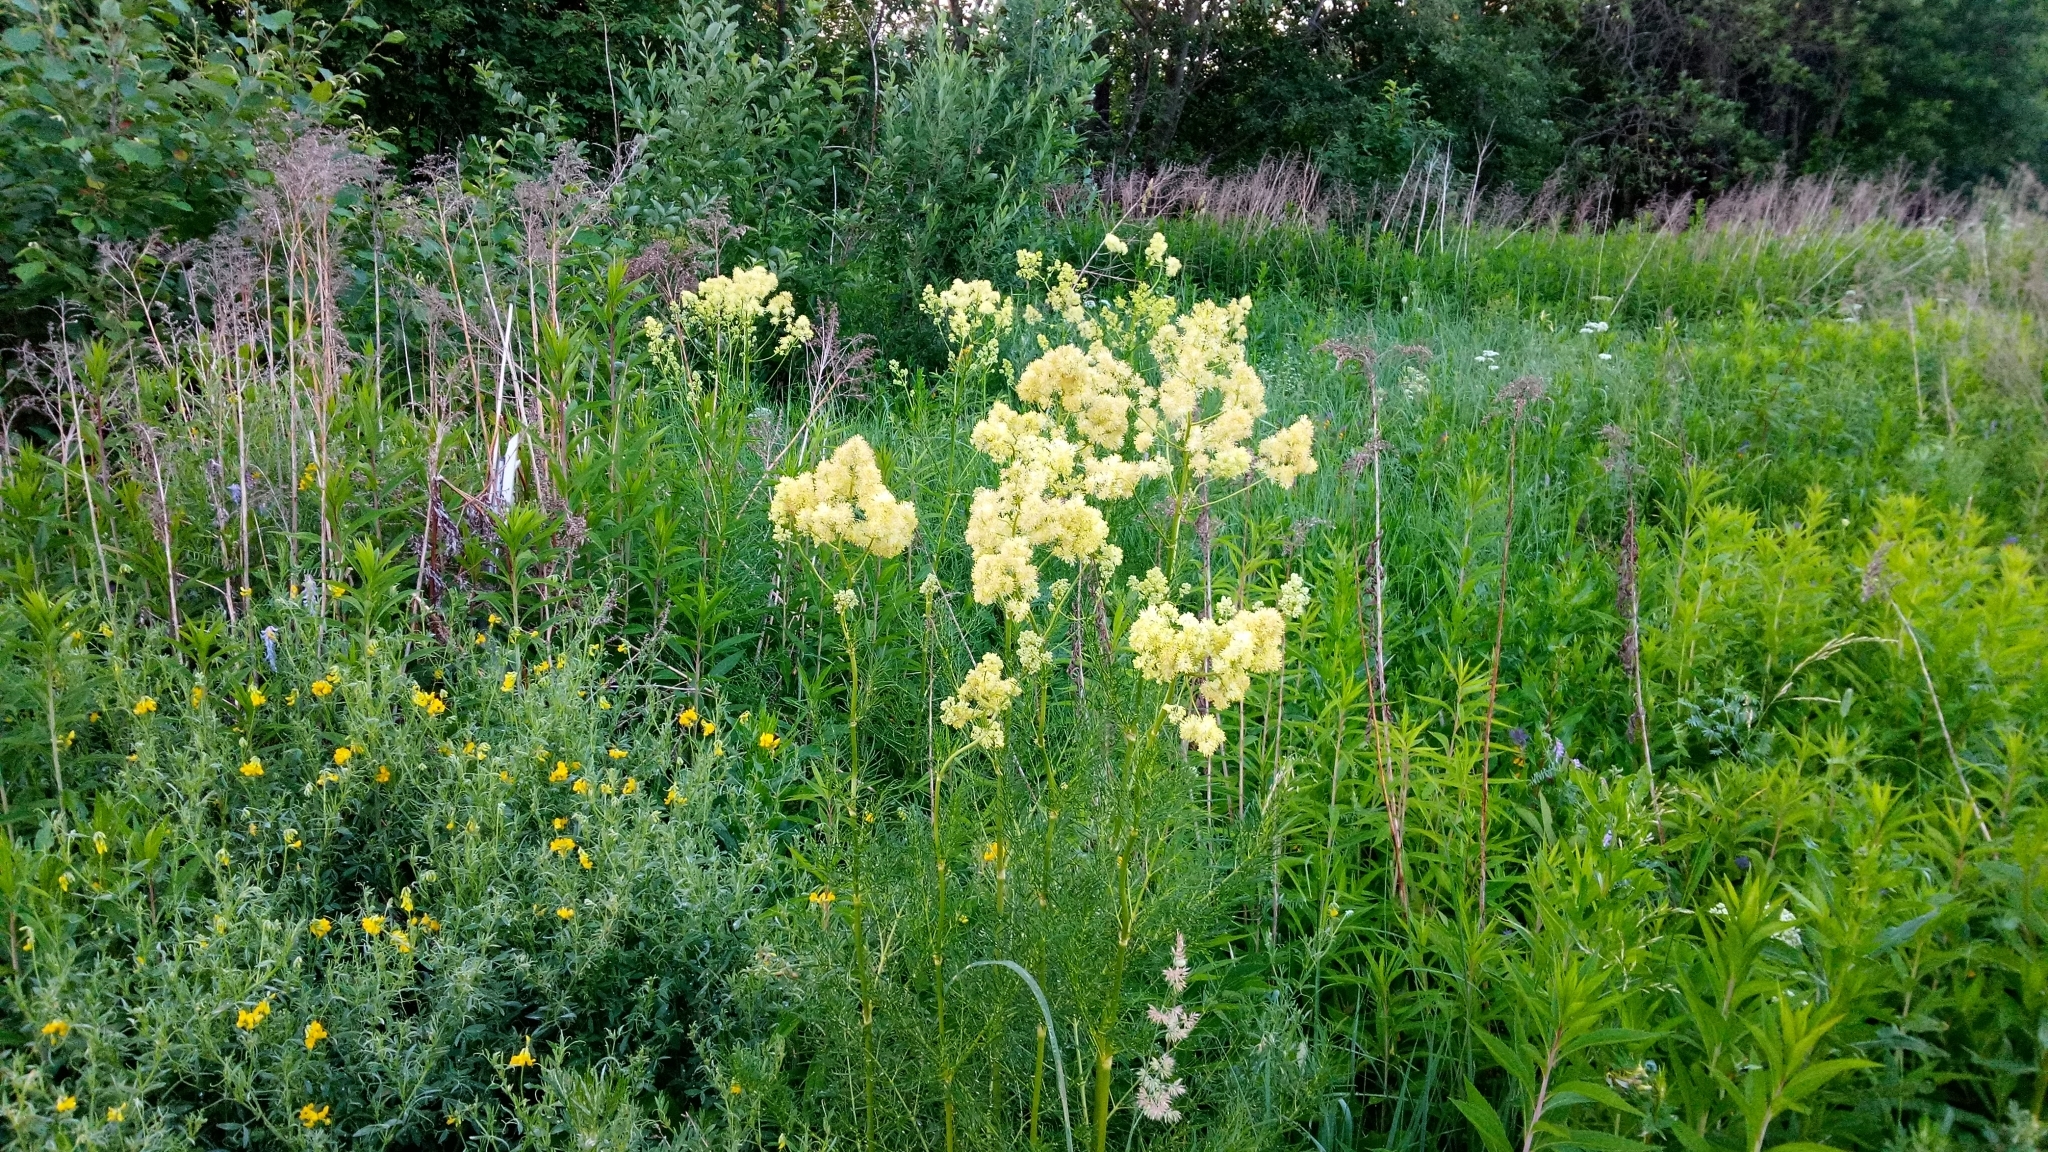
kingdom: Plantae
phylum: Tracheophyta
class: Magnoliopsida
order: Ranunculales
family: Ranunculaceae
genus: Thalictrum
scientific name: Thalictrum lucidum
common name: Shining meadow-rue
